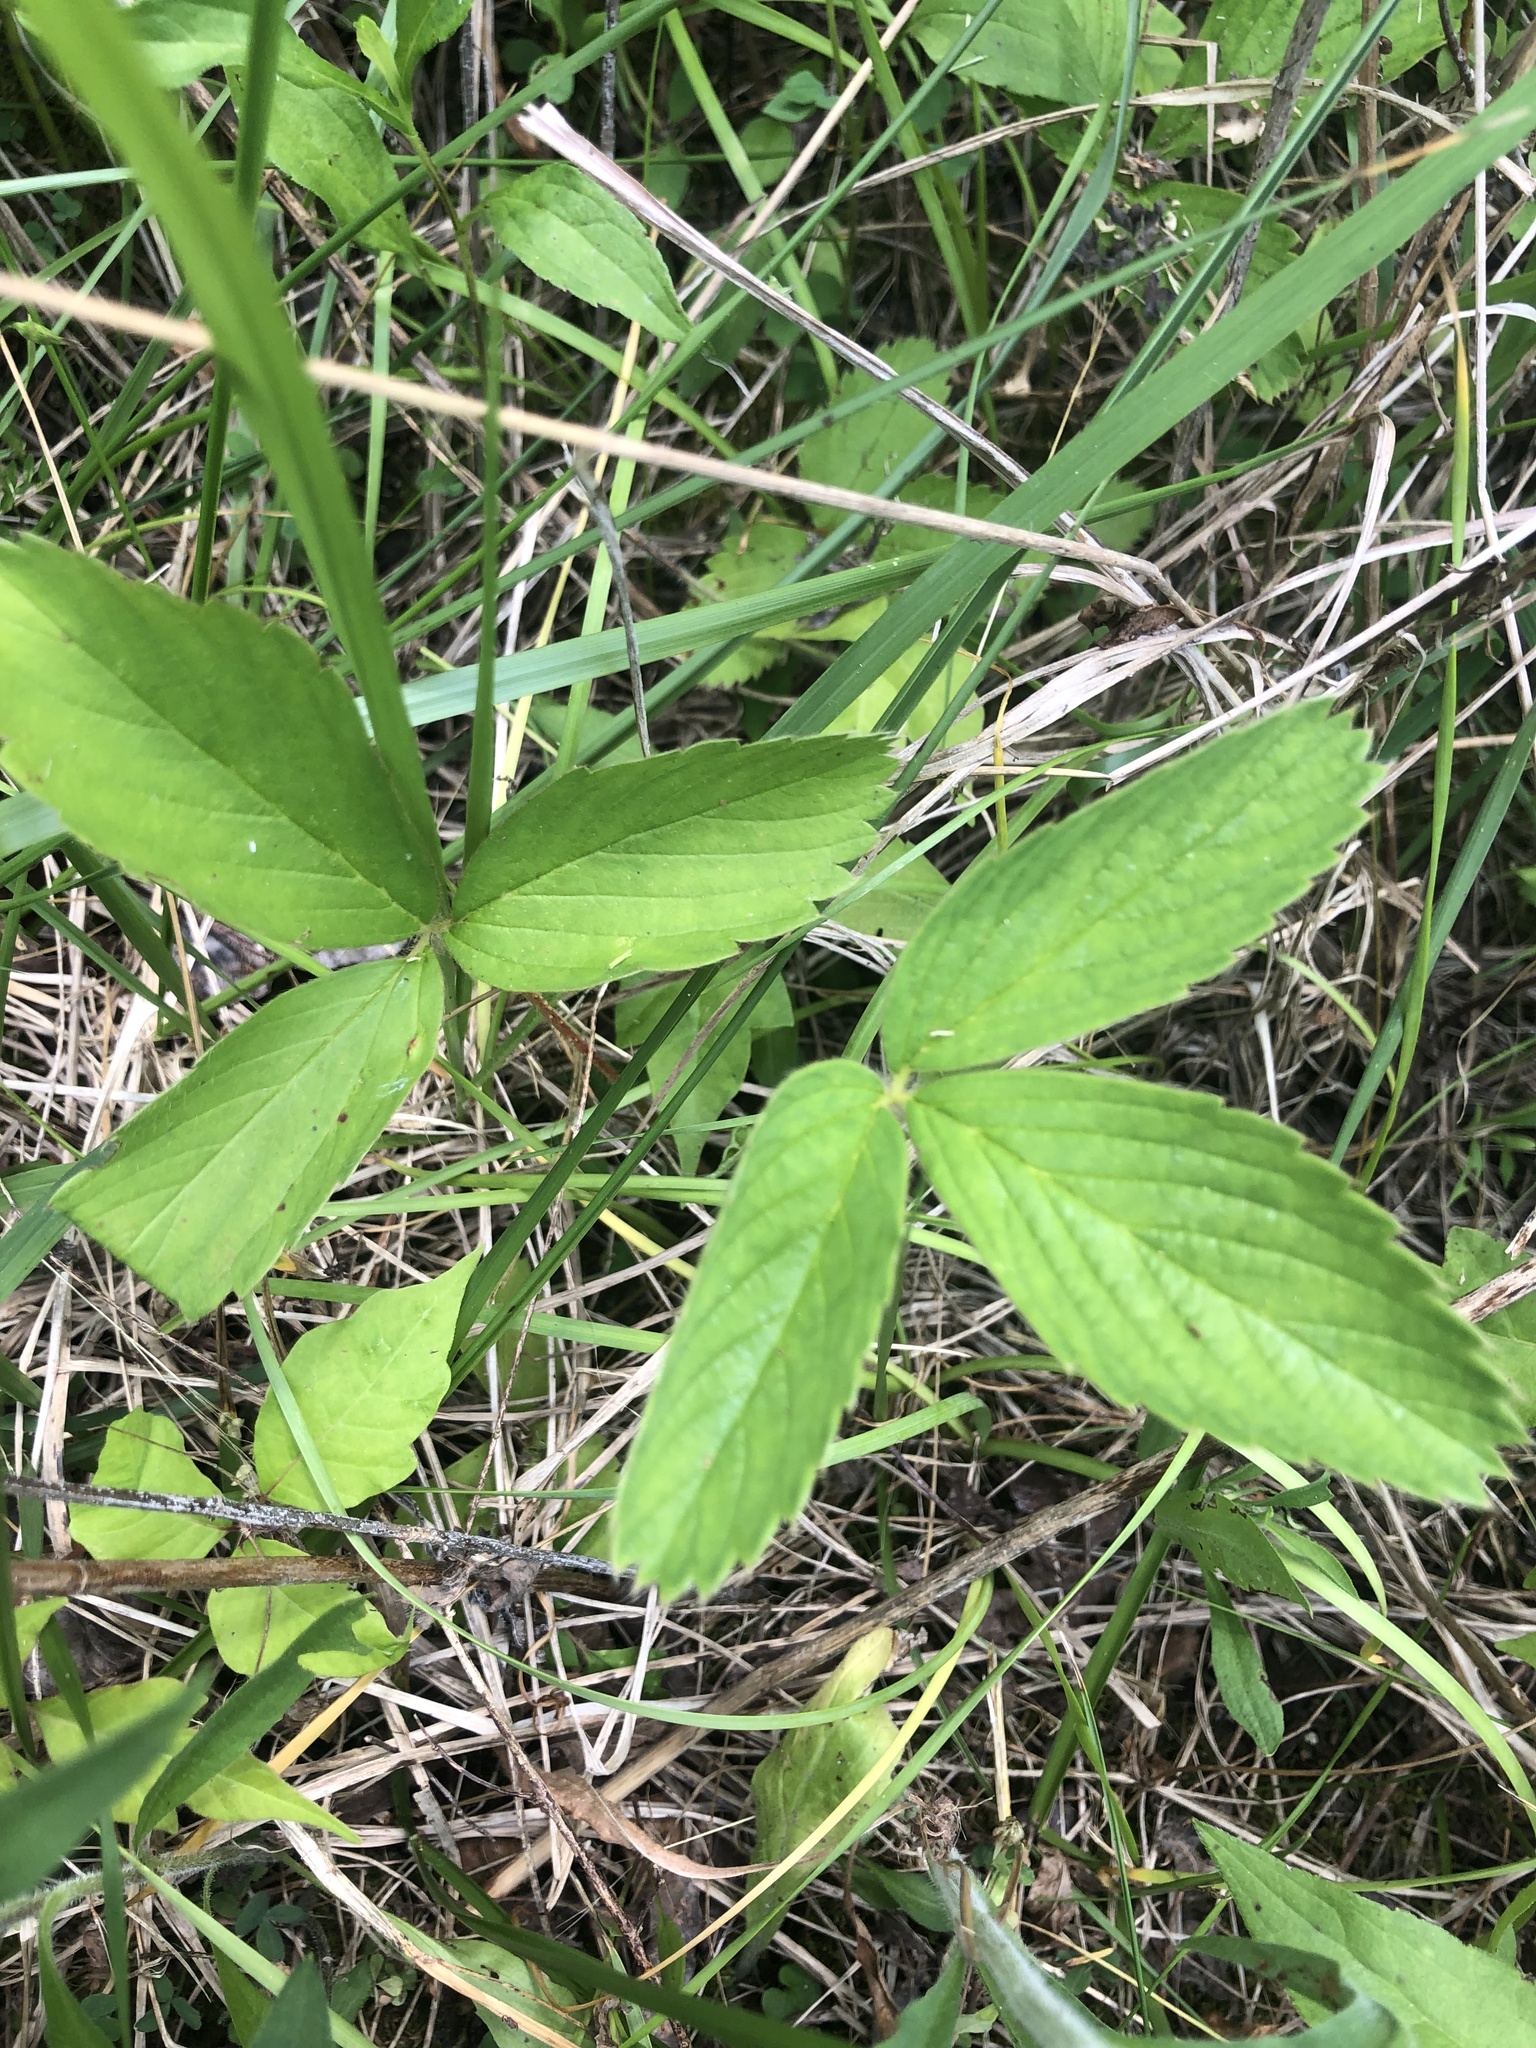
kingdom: Plantae
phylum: Tracheophyta
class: Magnoliopsida
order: Rosales
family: Rosaceae
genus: Fragaria
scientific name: Fragaria virginiana
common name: Thickleaved wild strawberry
